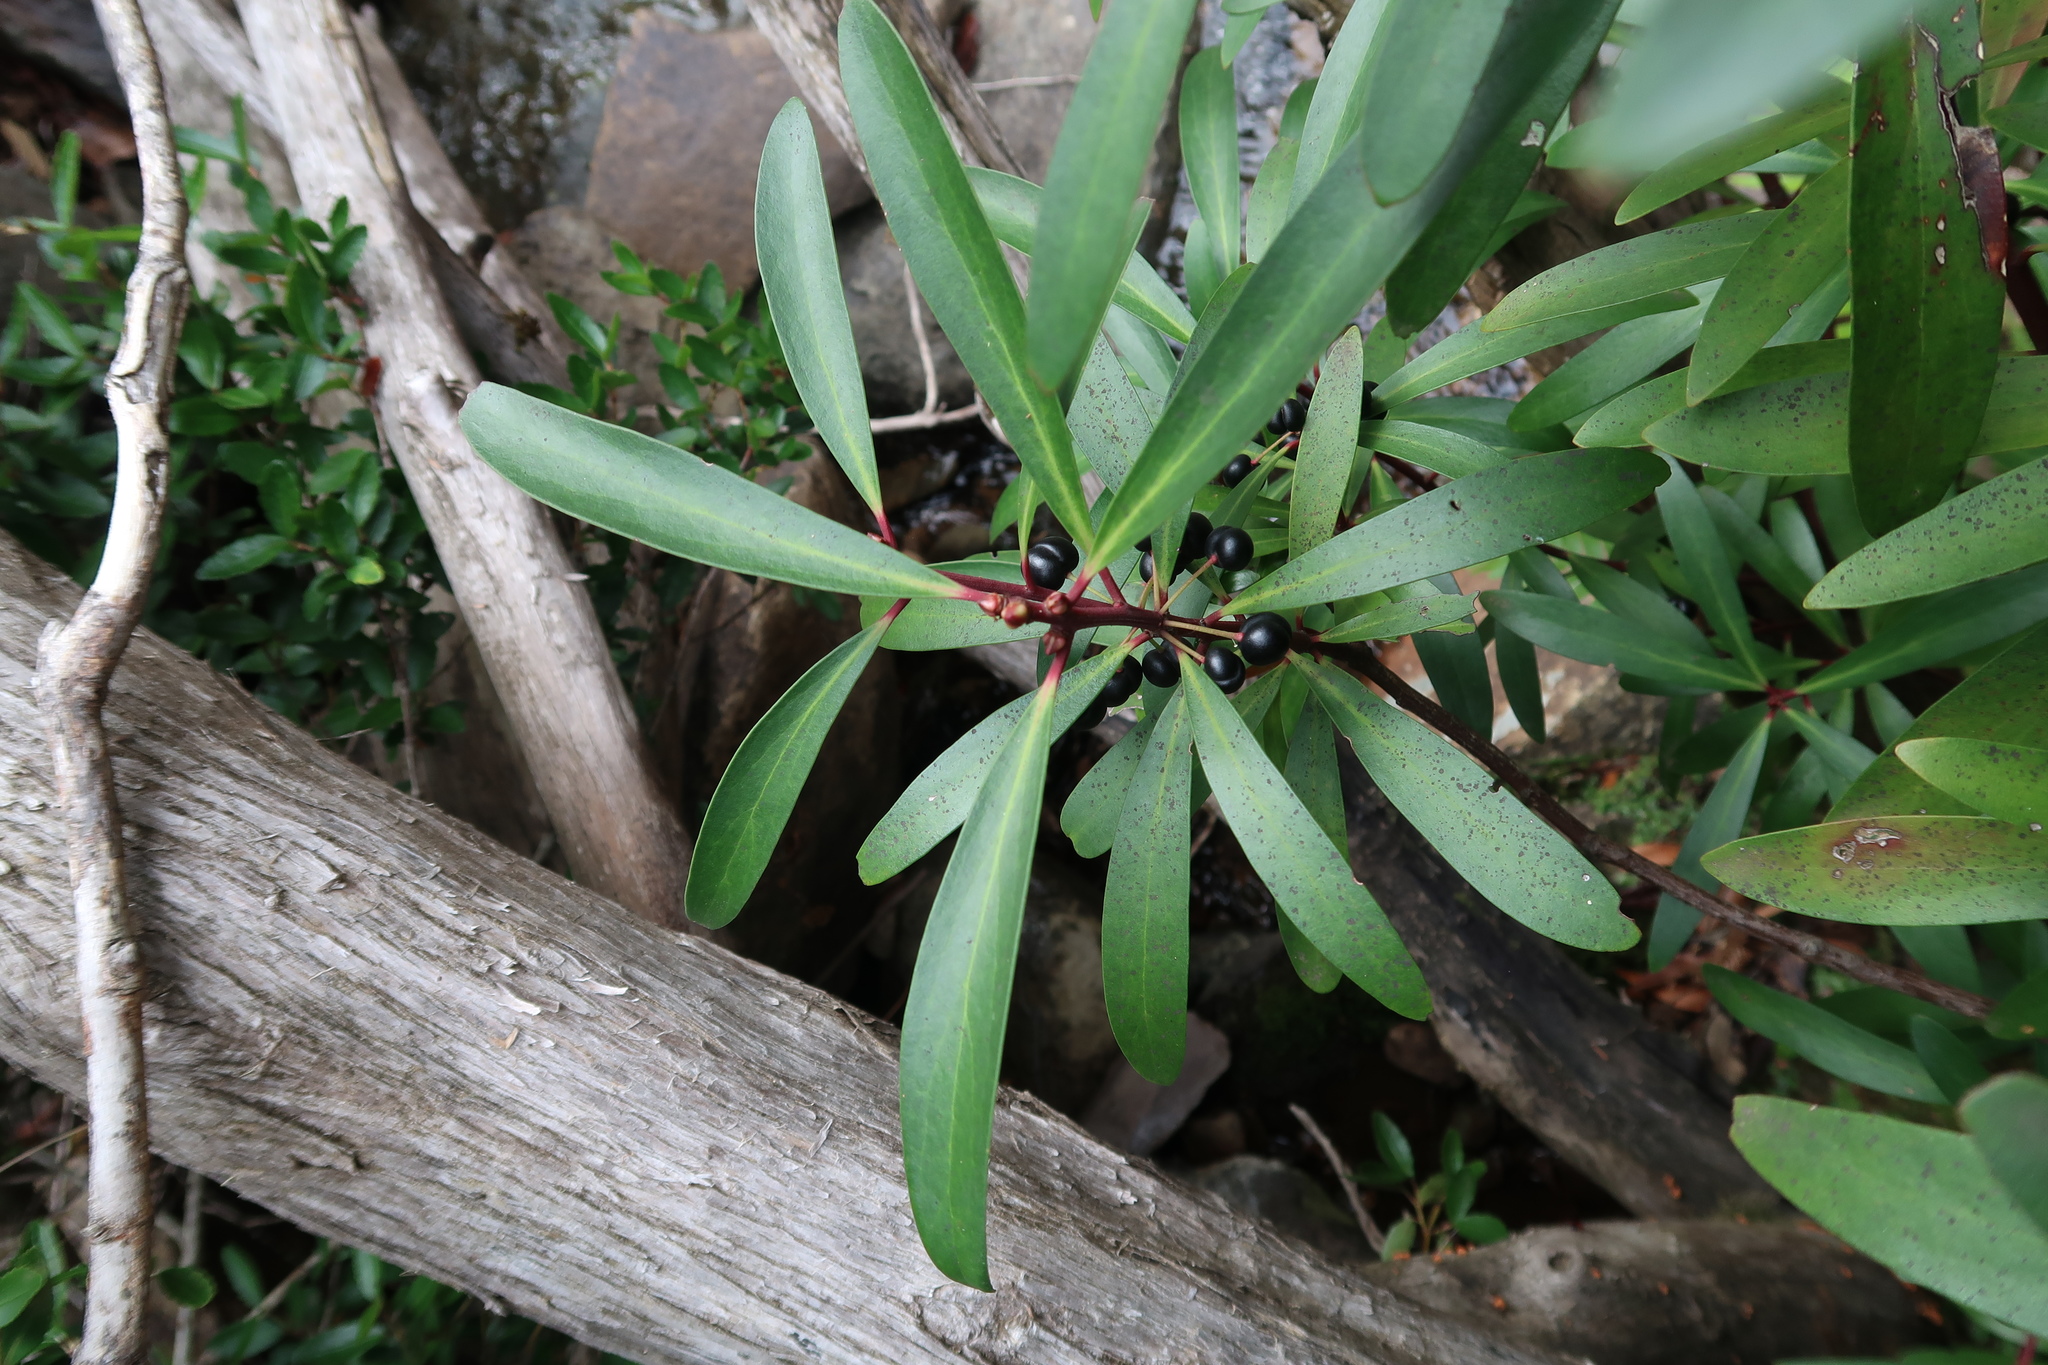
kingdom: Plantae
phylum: Tracheophyta
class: Magnoliopsida
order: Canellales
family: Winteraceae
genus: Drimys
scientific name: Drimys aromatica
